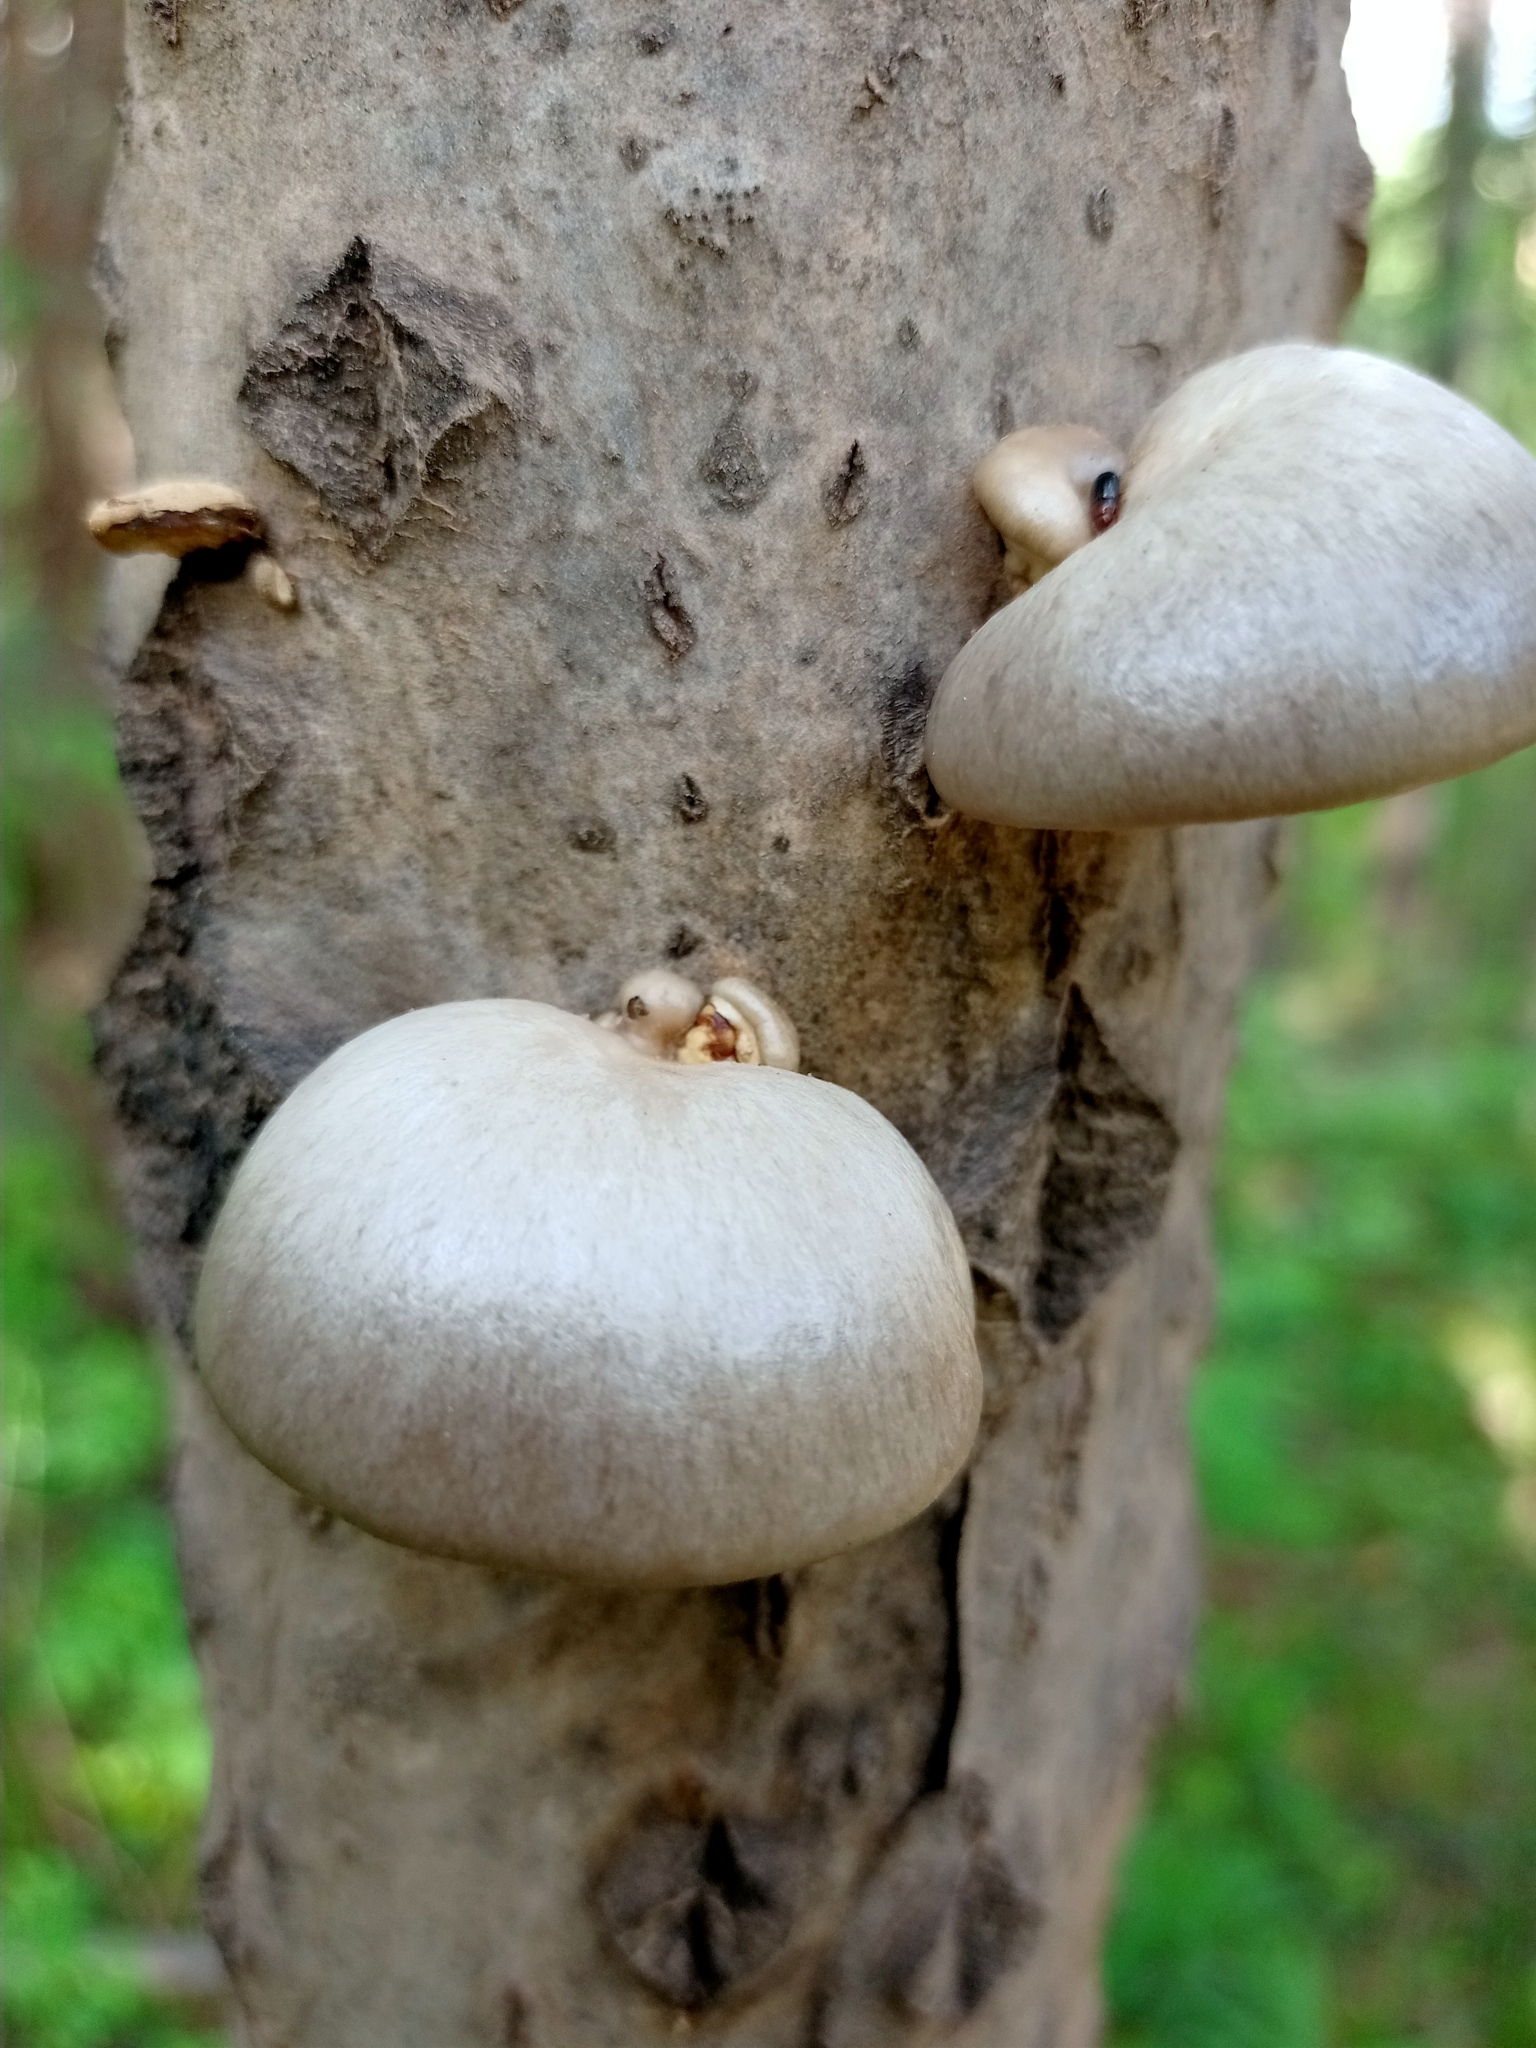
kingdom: Fungi
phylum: Basidiomycota
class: Agaricomycetes
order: Agaricales
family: Pleurotaceae
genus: Pleurotus
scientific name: Pleurotus calyptratus
